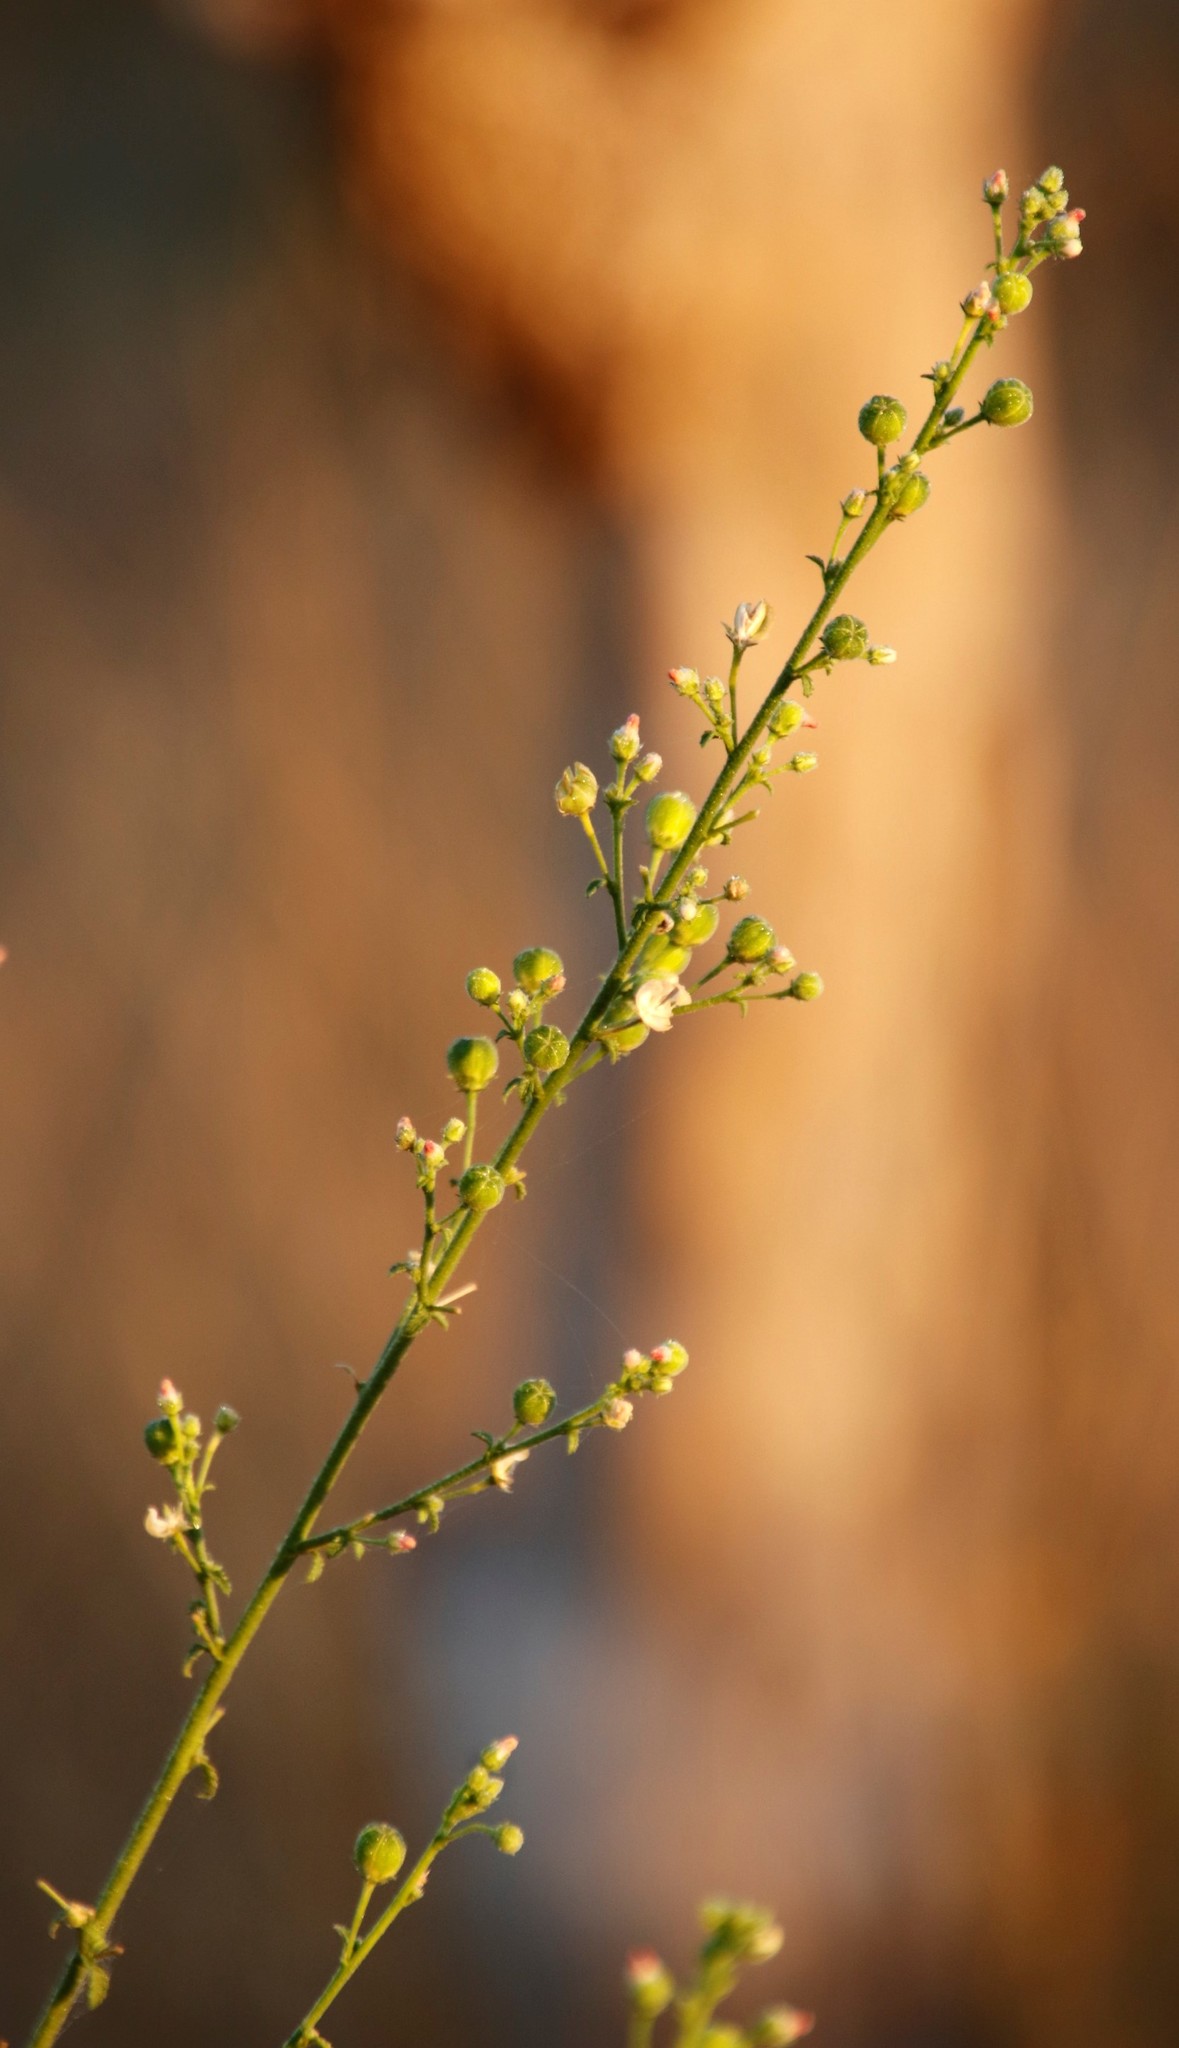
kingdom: Plantae
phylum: Tracheophyta
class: Magnoliopsida
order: Malvales
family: Malvaceae
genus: Hibiscus
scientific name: Hibiscus rhodanthus
